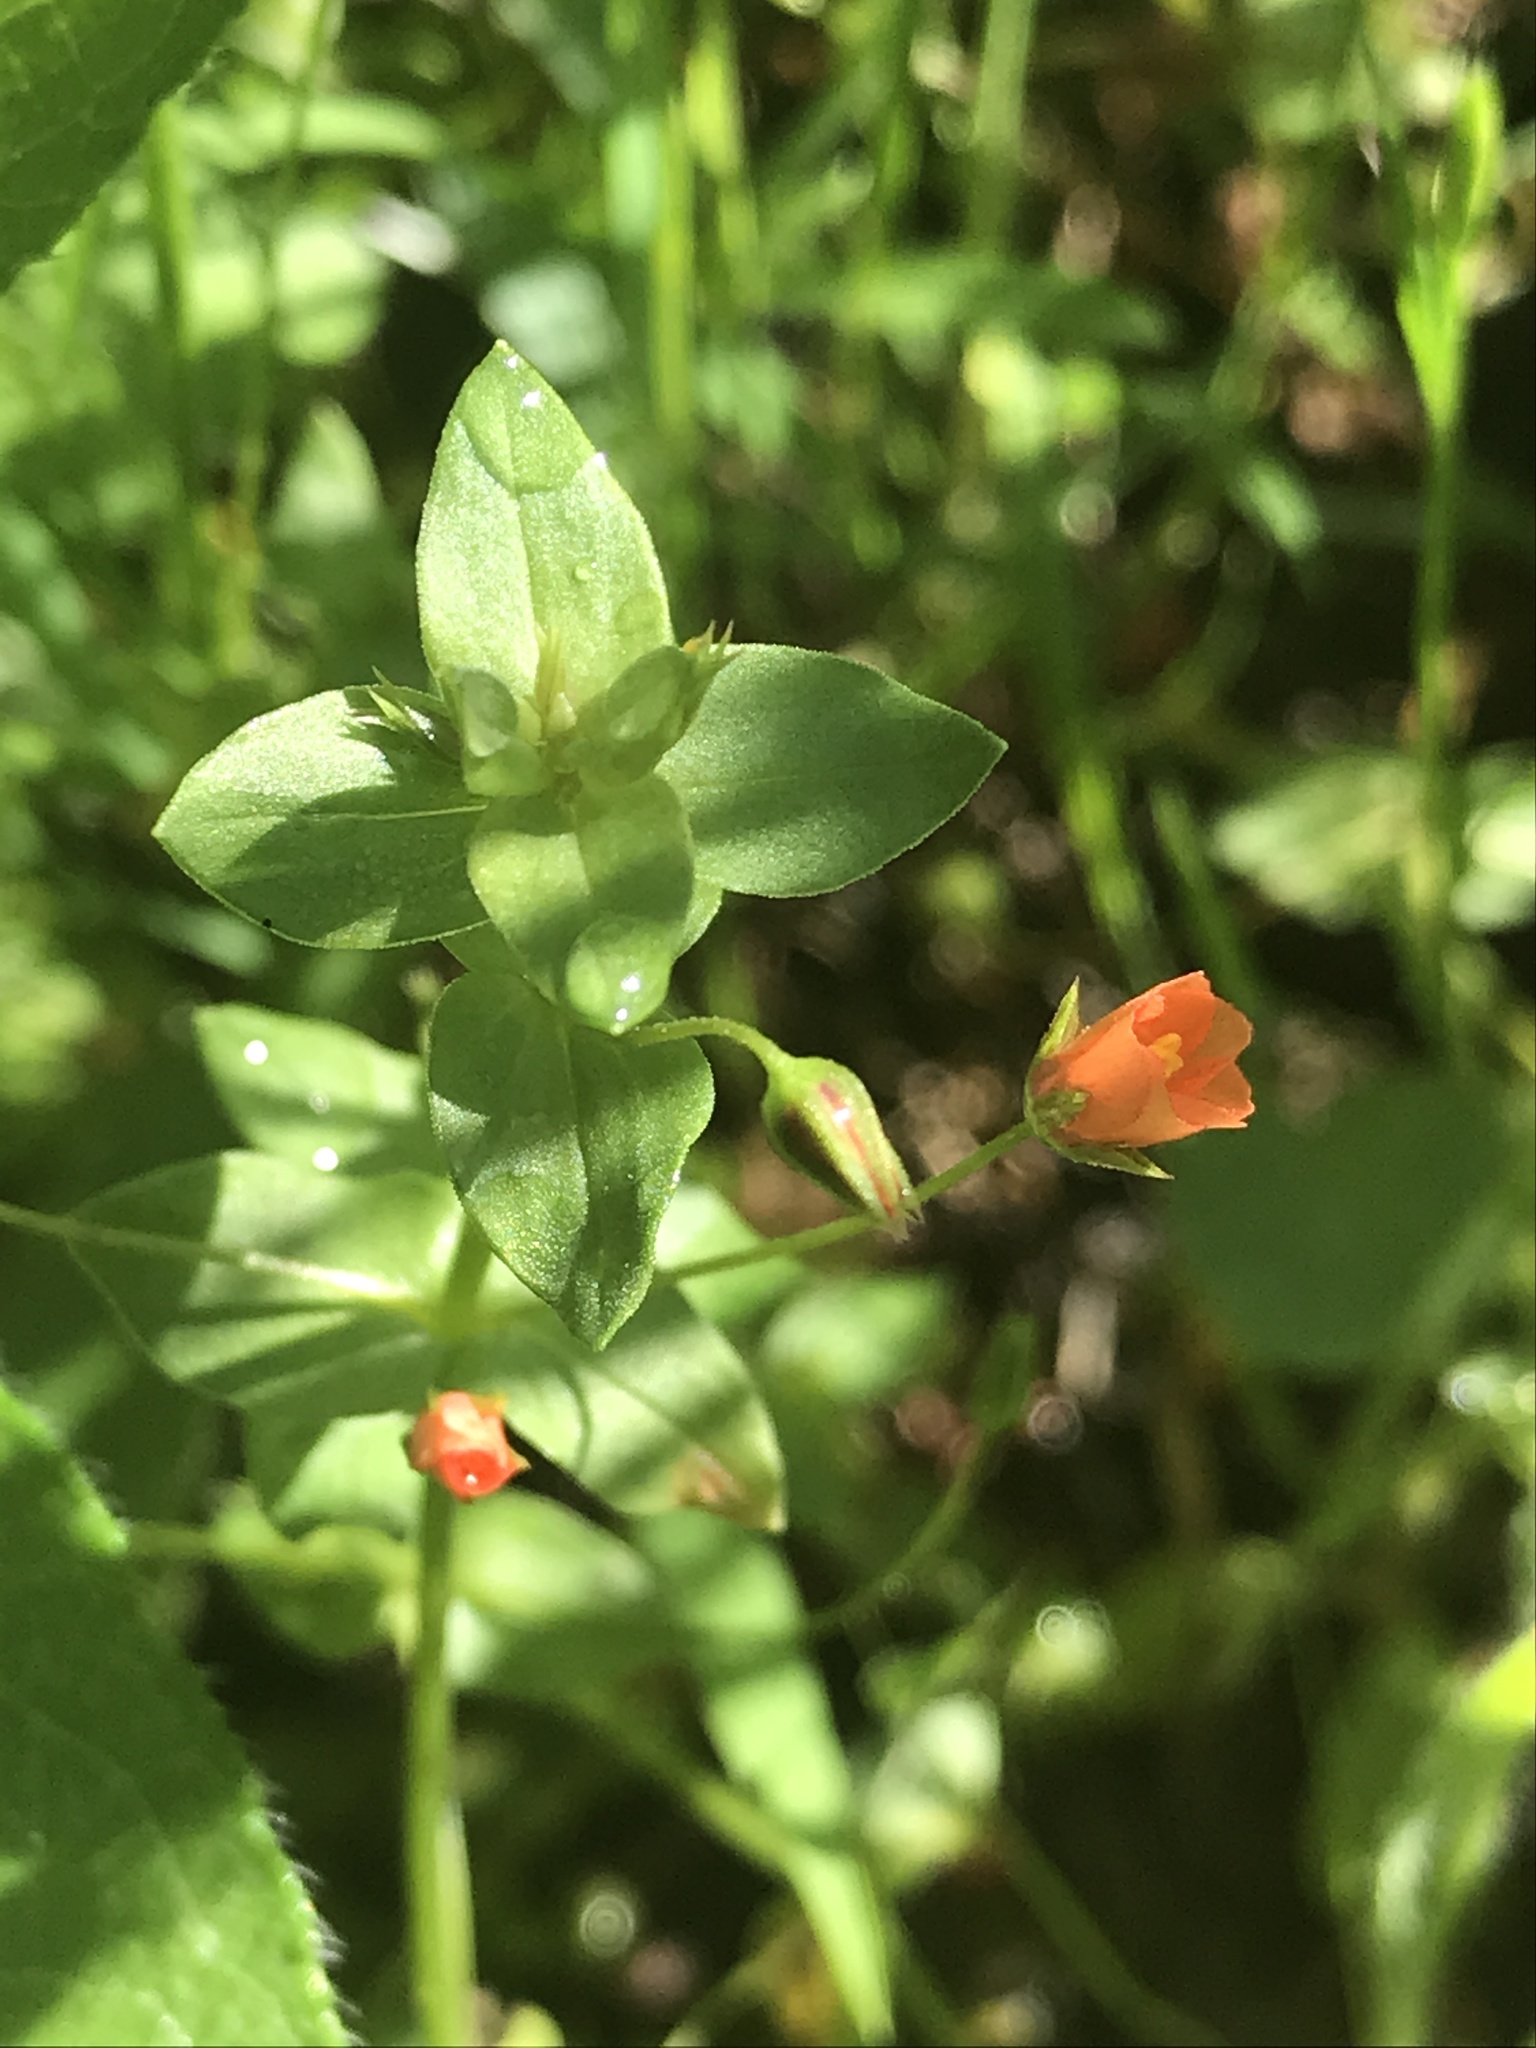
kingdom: Plantae
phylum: Tracheophyta
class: Magnoliopsida
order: Ericales
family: Primulaceae
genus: Lysimachia
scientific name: Lysimachia arvensis
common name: Scarlet pimpernel
